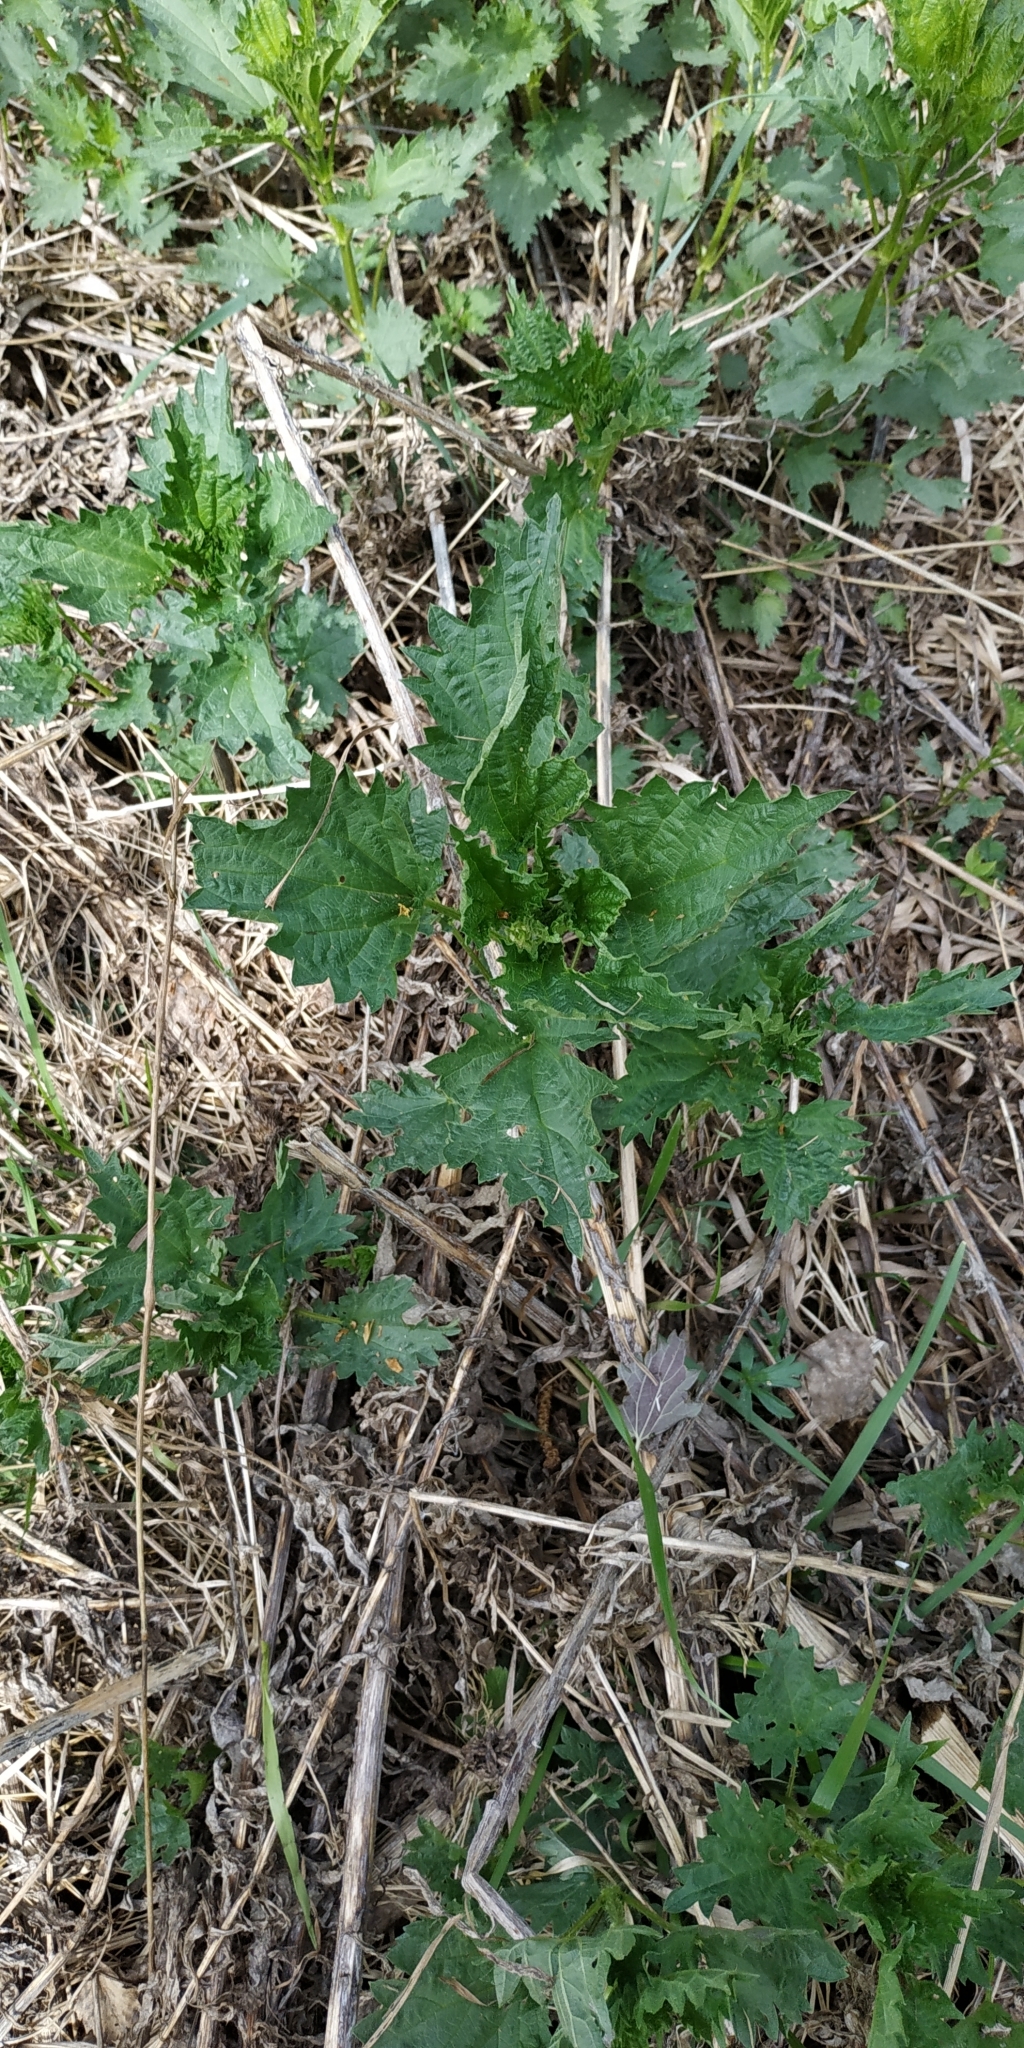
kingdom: Plantae
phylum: Tracheophyta
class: Magnoliopsida
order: Rosales
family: Urticaceae
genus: Urtica
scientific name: Urtica dioica
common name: Common nettle
